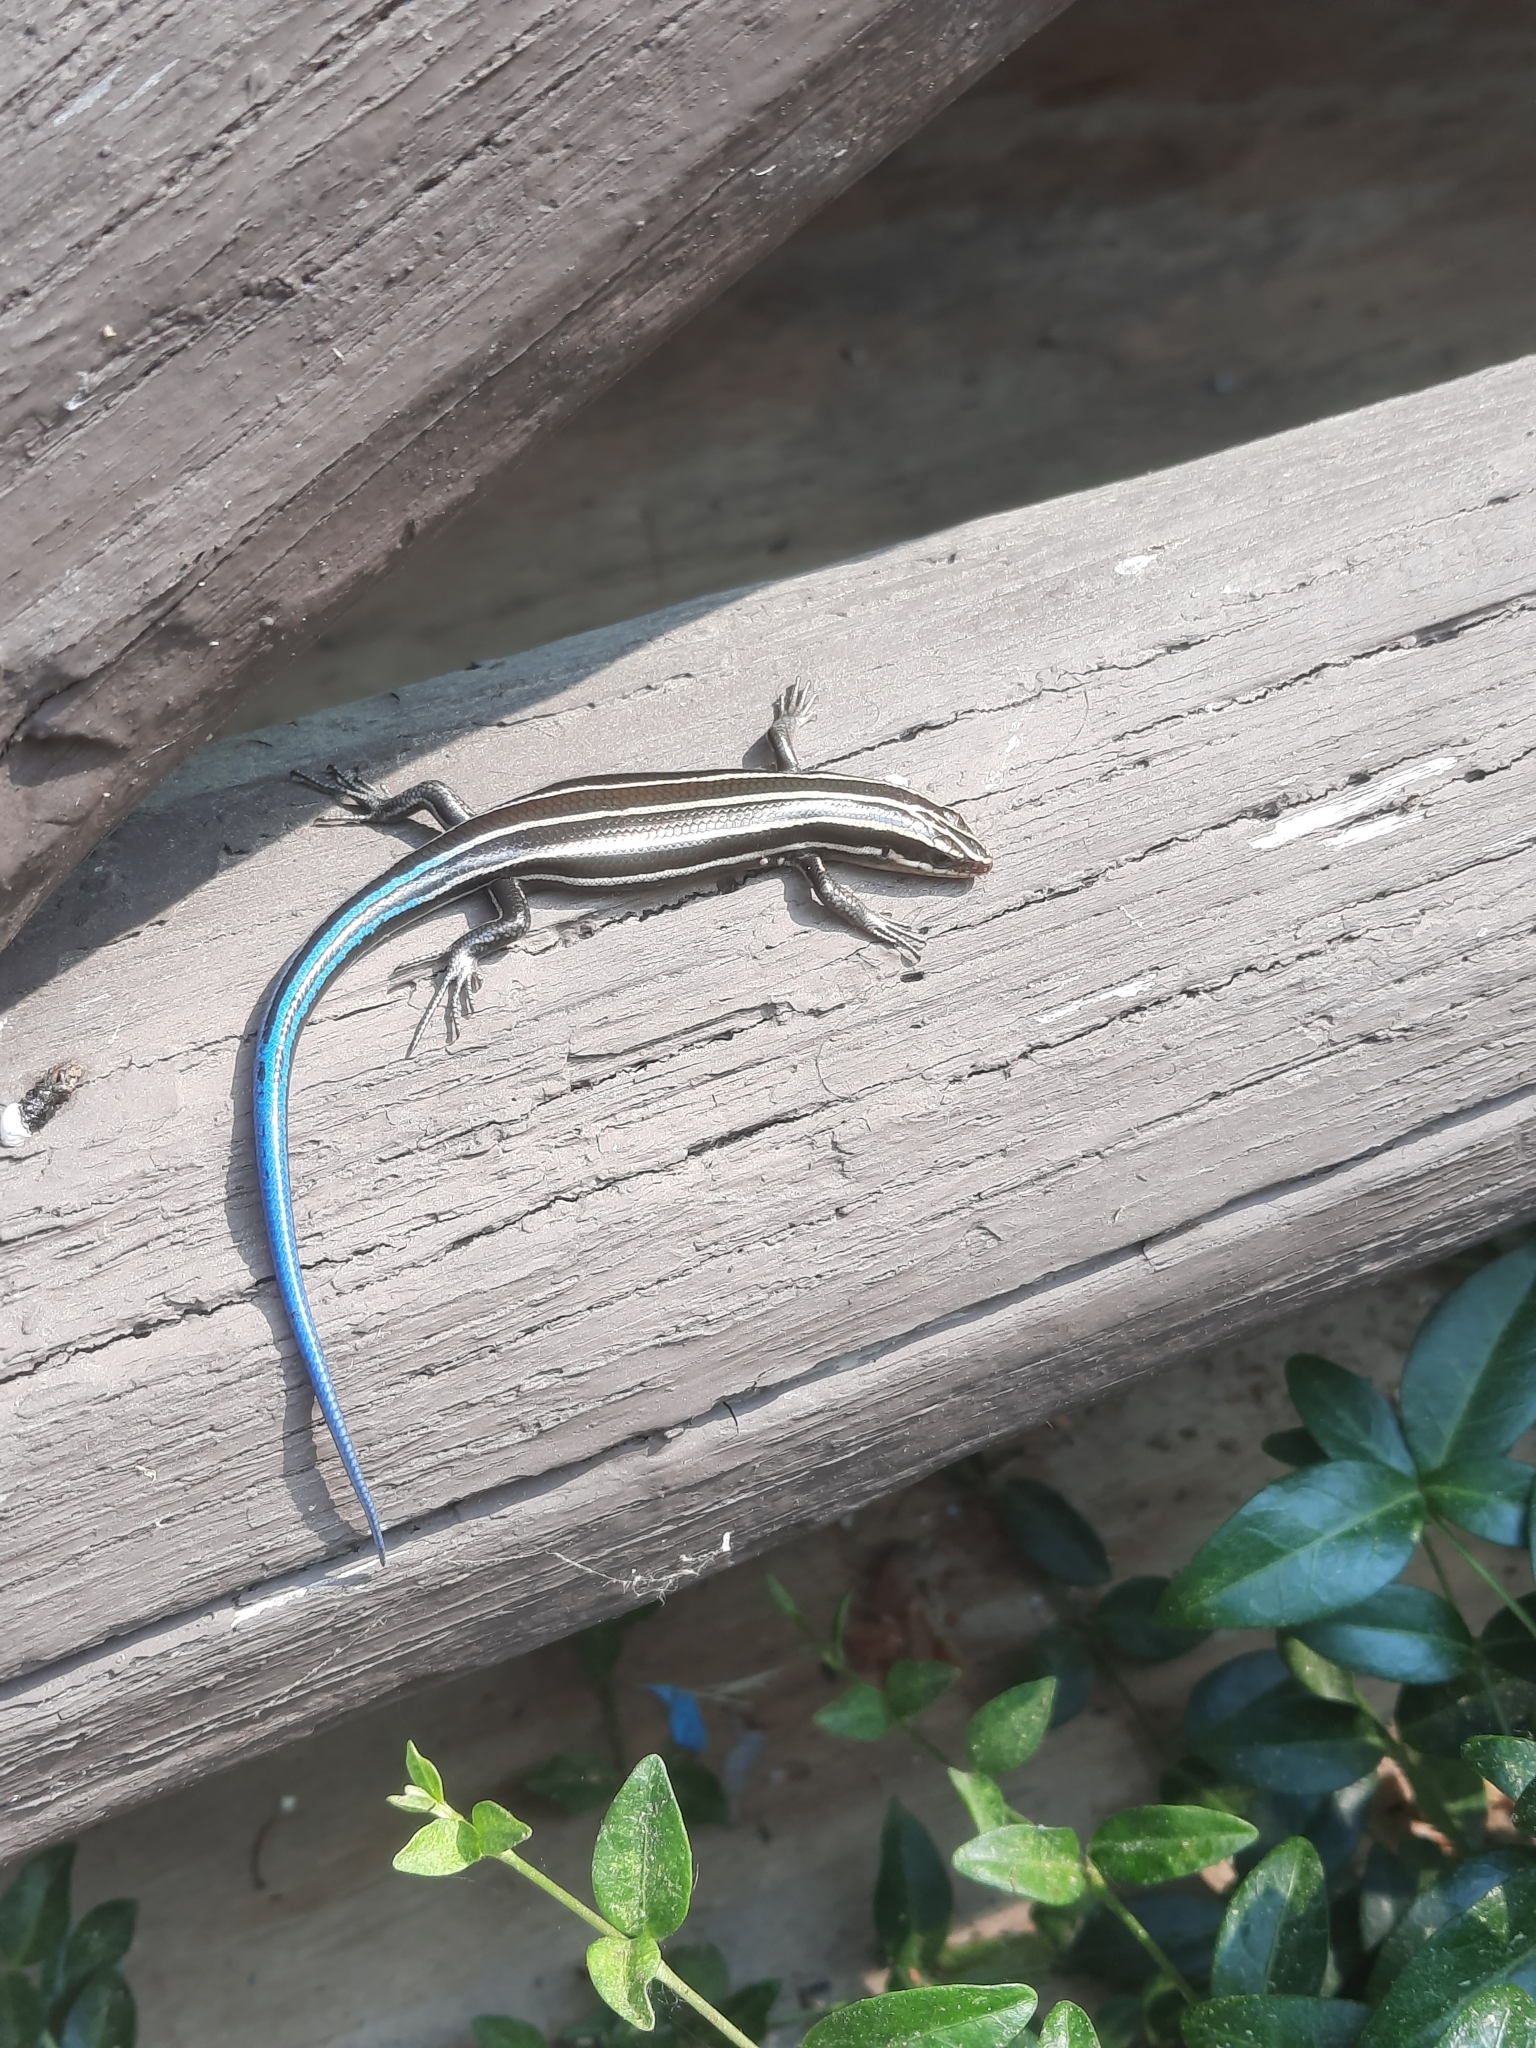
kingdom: Animalia
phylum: Chordata
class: Squamata
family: Scincidae
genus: Plestiodon
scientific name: Plestiodon fasciatus
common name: Five-lined skink
